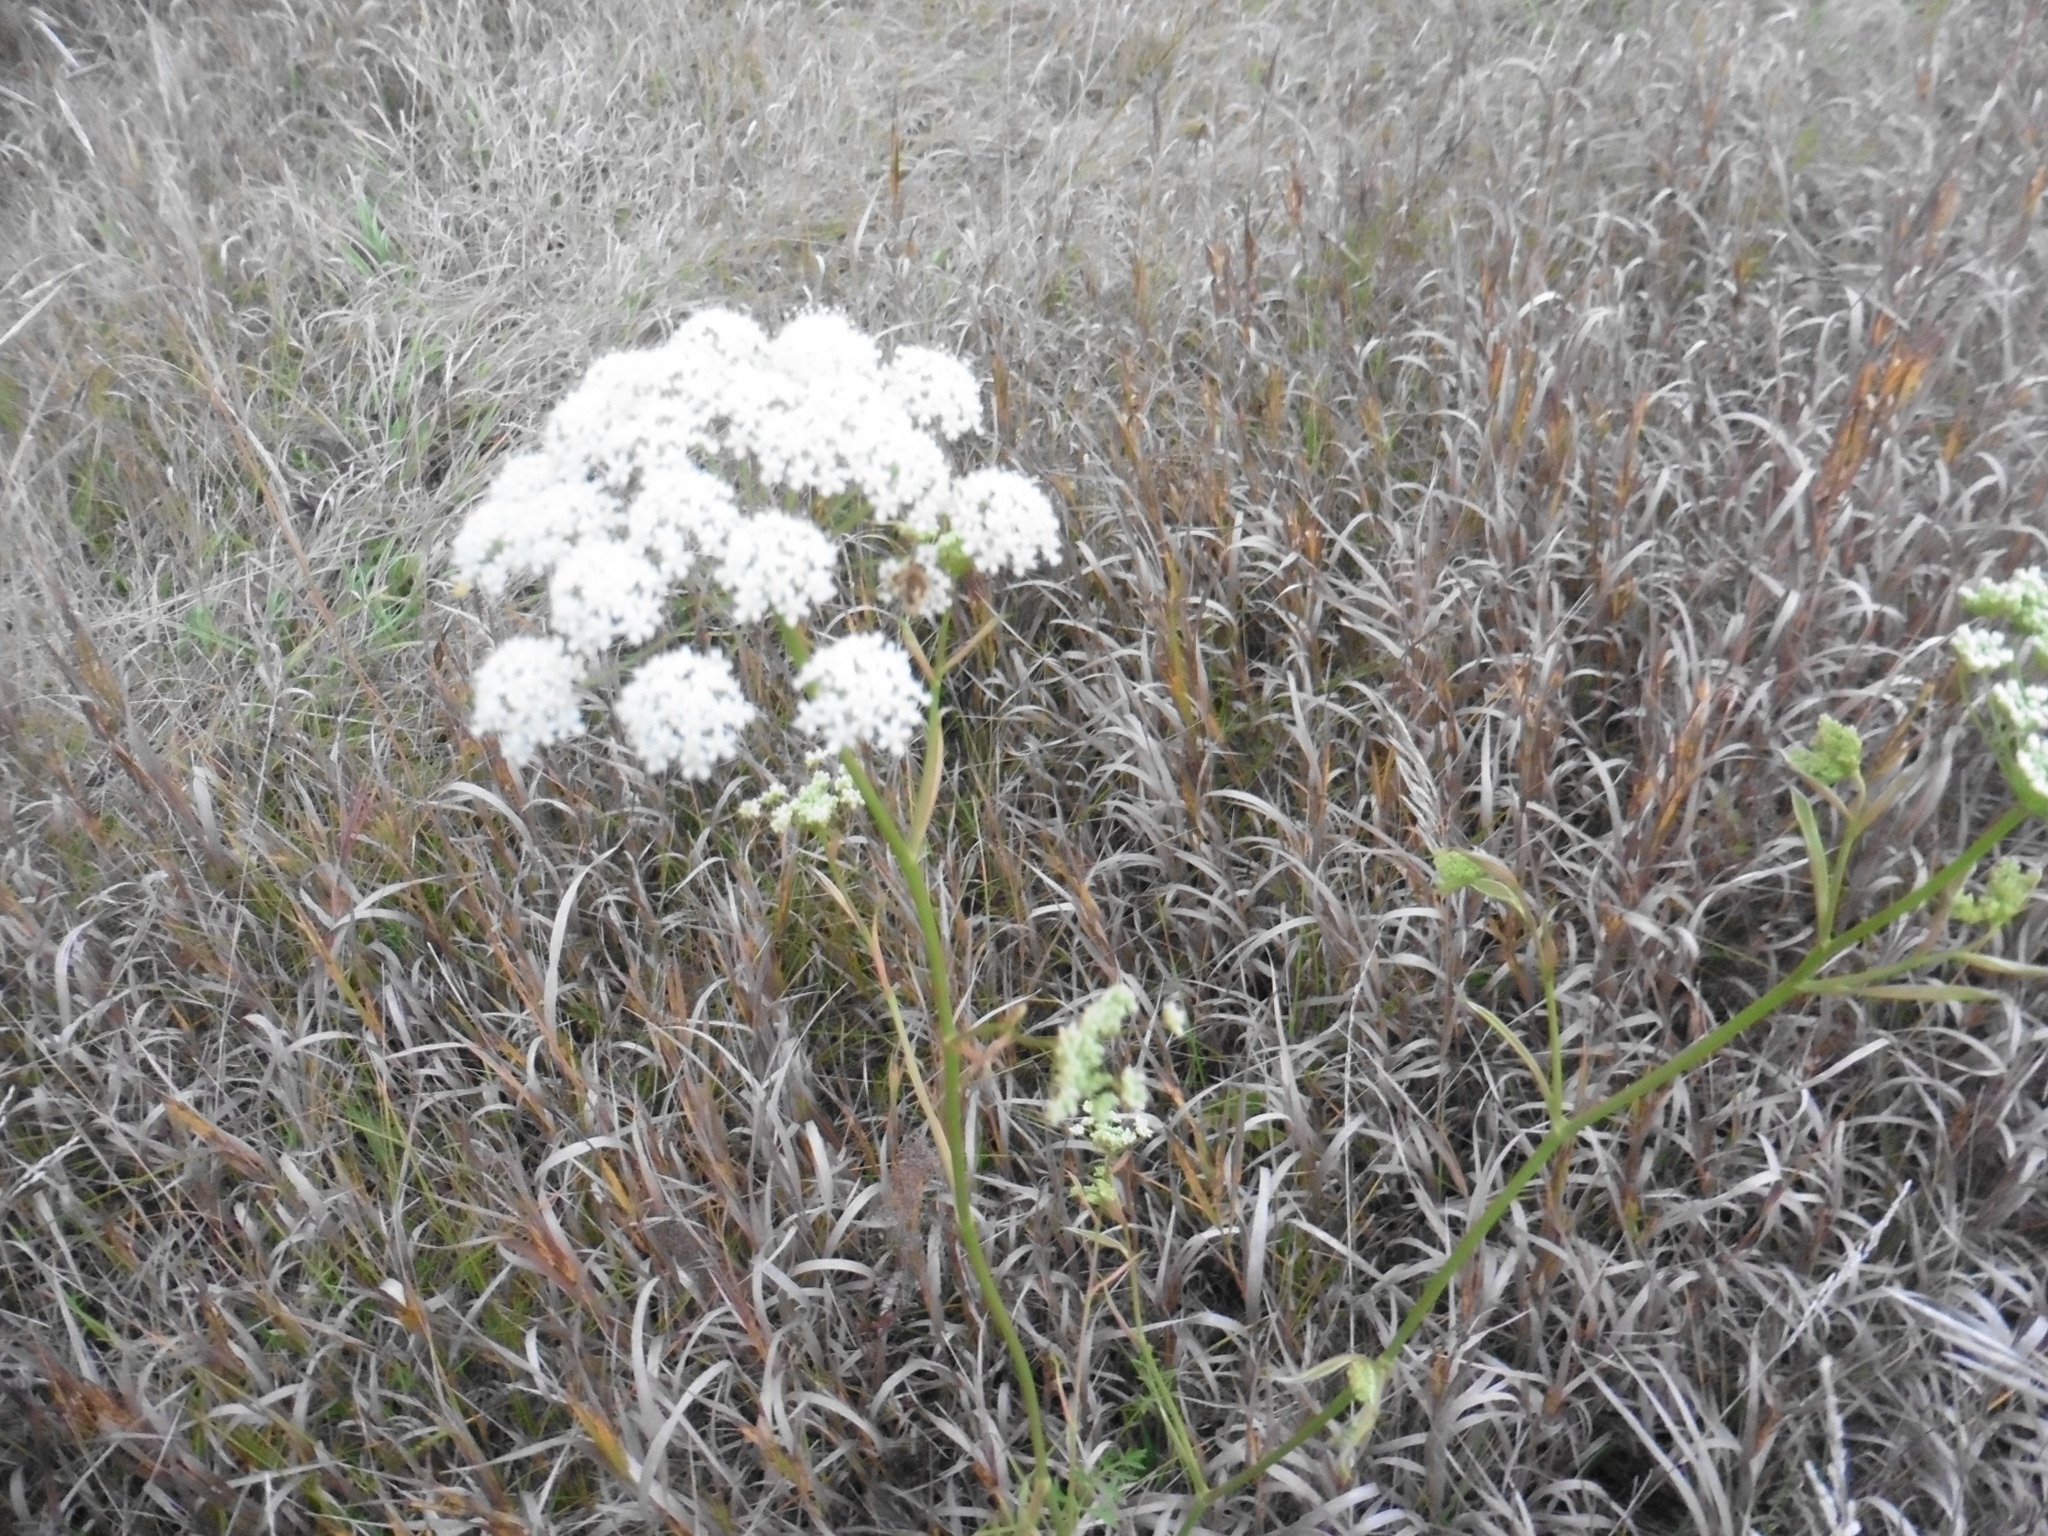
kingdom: Plantae
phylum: Tracheophyta
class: Magnoliopsida
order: Apiales
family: Apiaceae
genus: Pimpinella
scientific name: Pimpinella saxifraga
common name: Burnet-saxifrage
